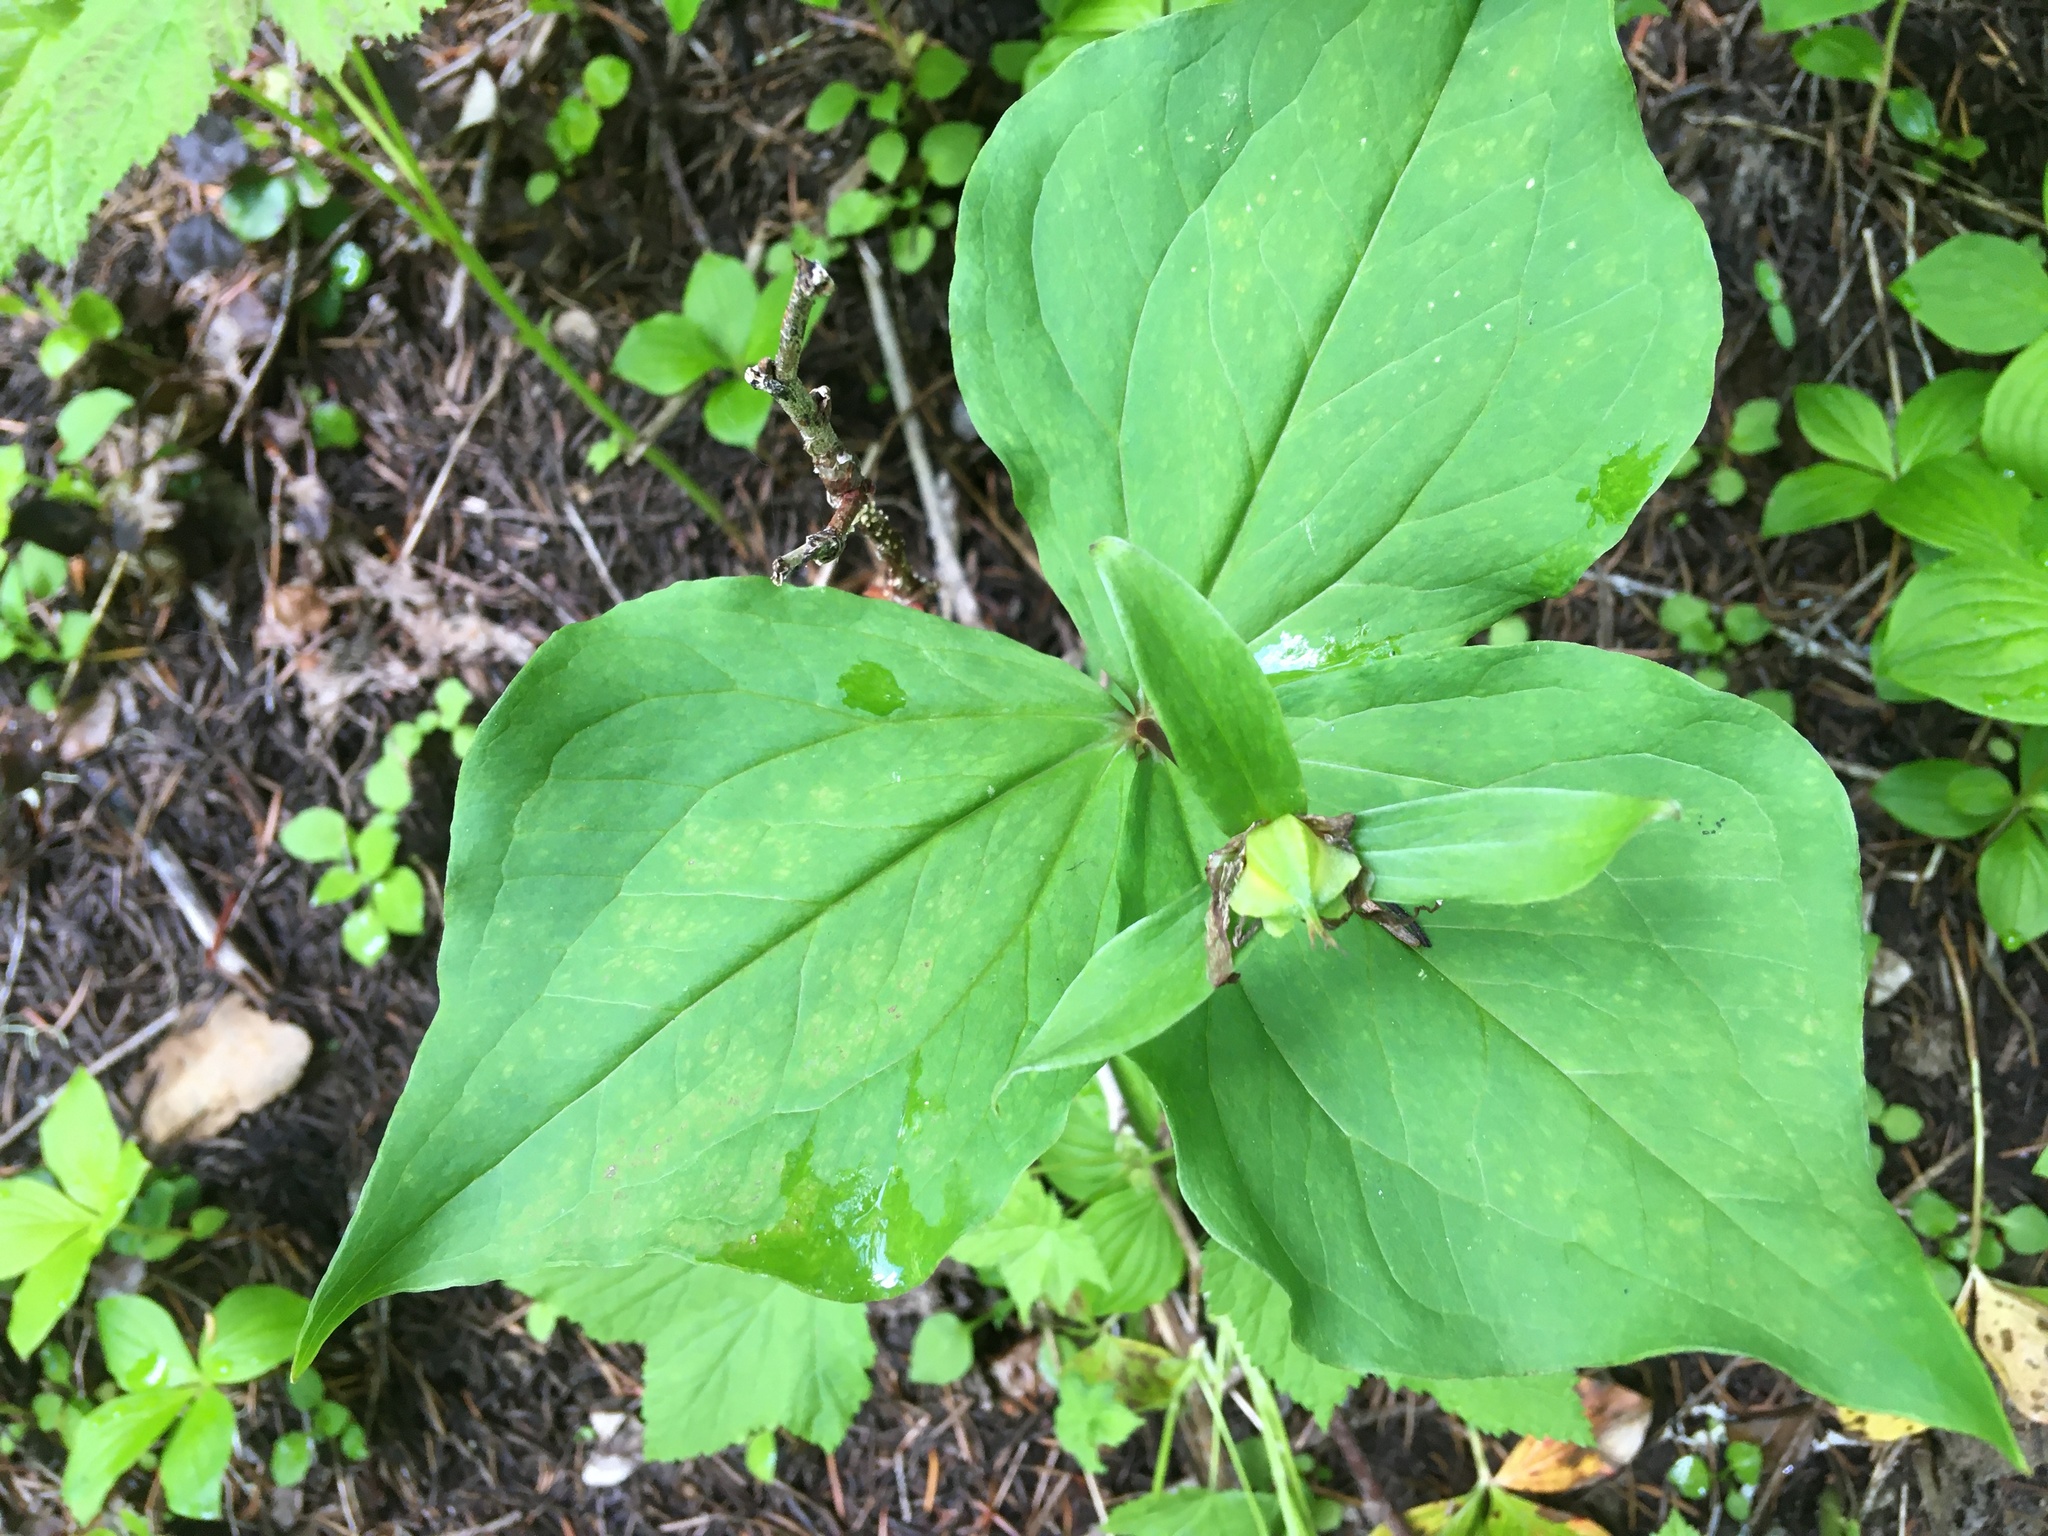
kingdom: Plantae
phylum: Tracheophyta
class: Liliopsida
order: Liliales
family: Melanthiaceae
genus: Trillium
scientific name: Trillium ovatum
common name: Pacific trillium
